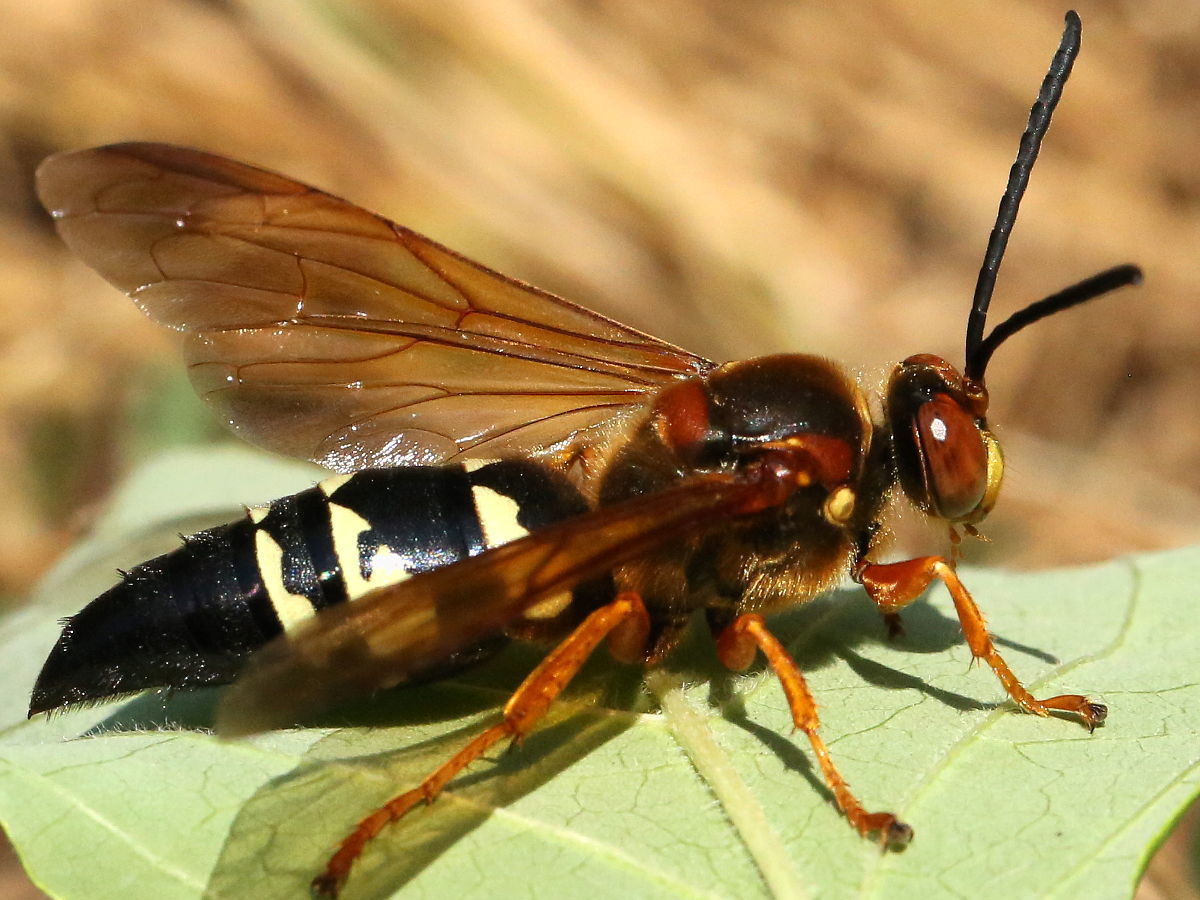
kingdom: Animalia
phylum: Arthropoda
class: Insecta
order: Hymenoptera
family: Crabronidae
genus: Sphecius
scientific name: Sphecius speciosus
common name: Cicada killer
